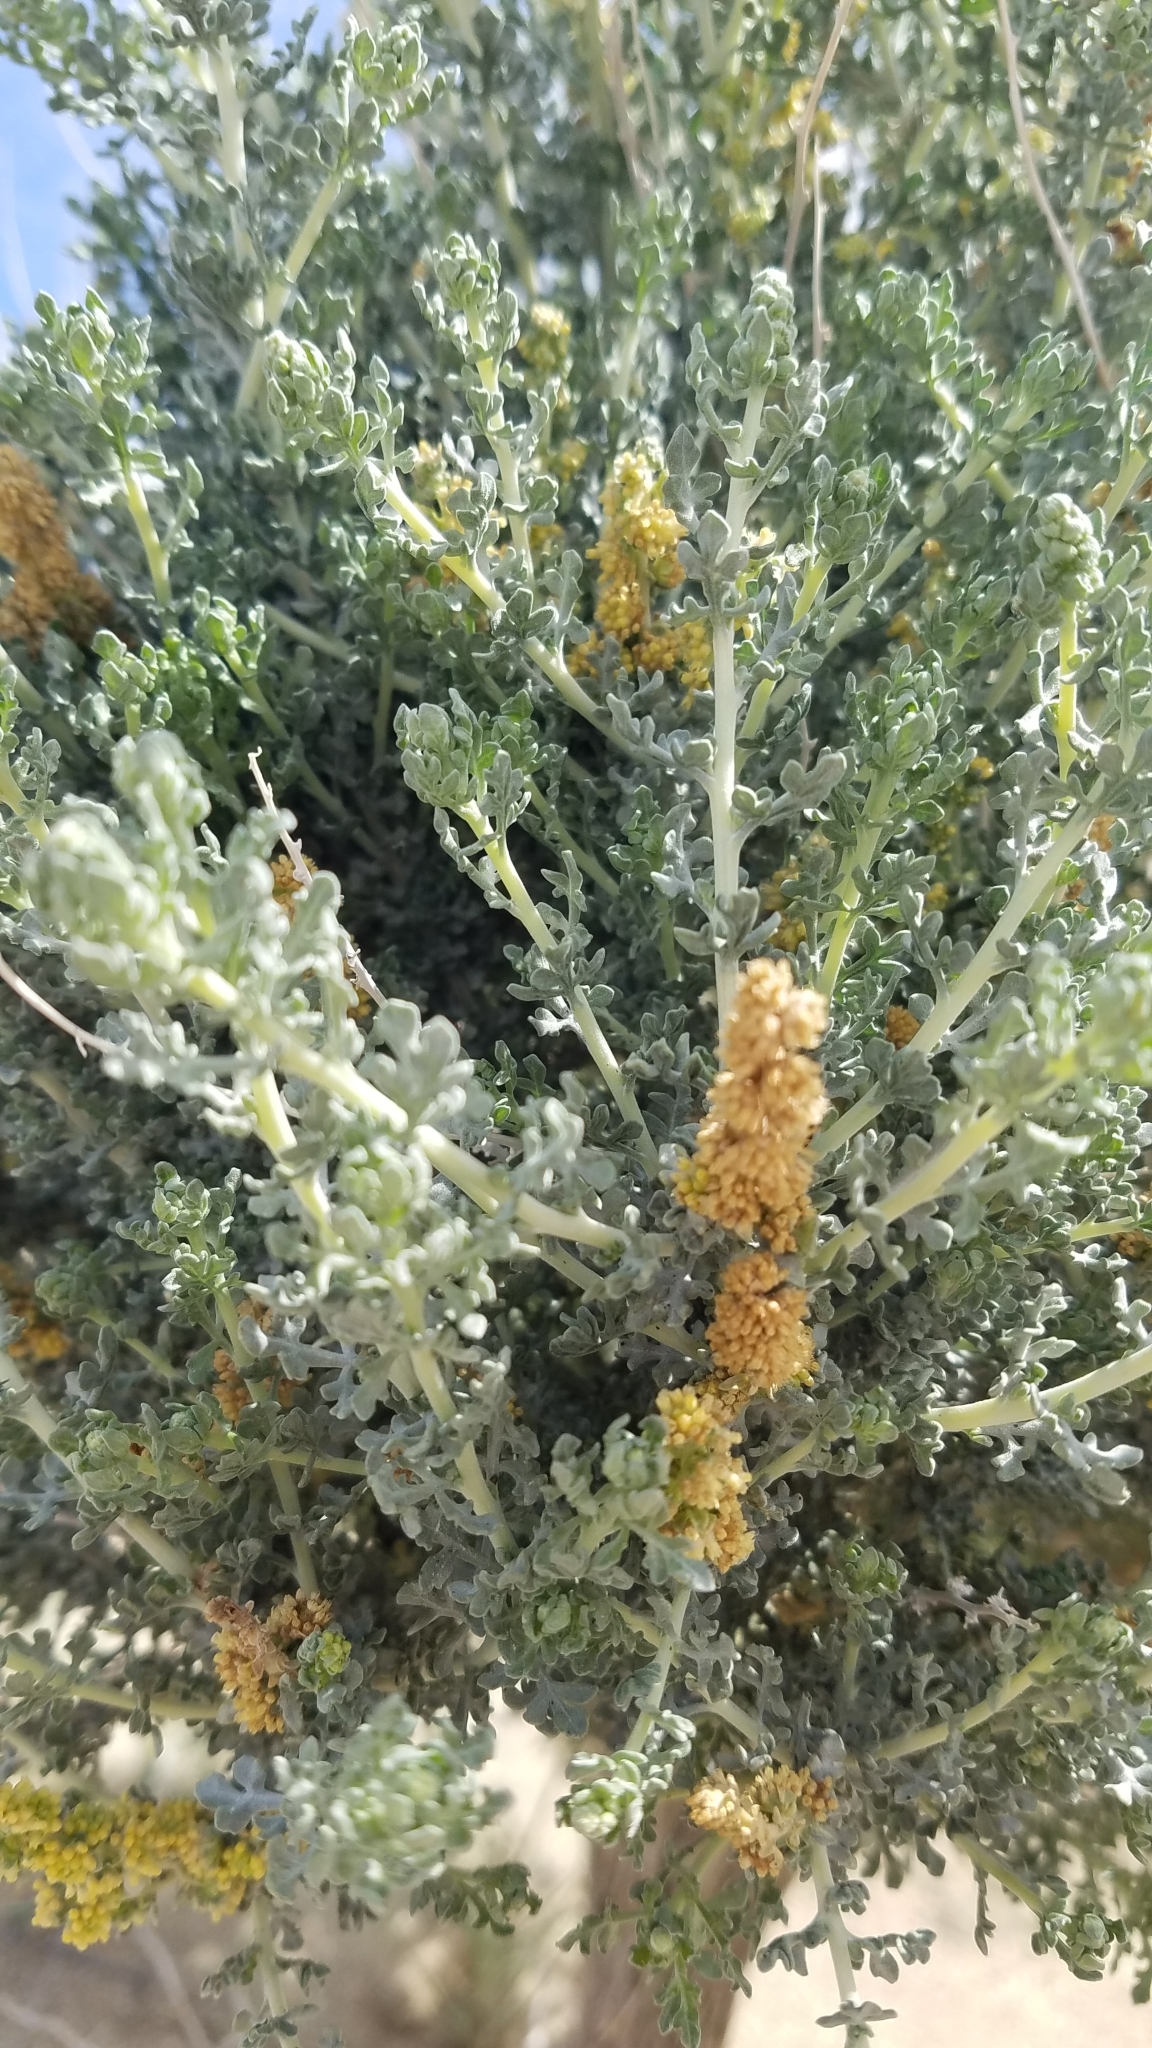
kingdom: Plantae
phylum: Tracheophyta
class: Magnoliopsida
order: Asterales
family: Asteraceae
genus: Ambrosia
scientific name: Ambrosia dumosa
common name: Bur-sage
